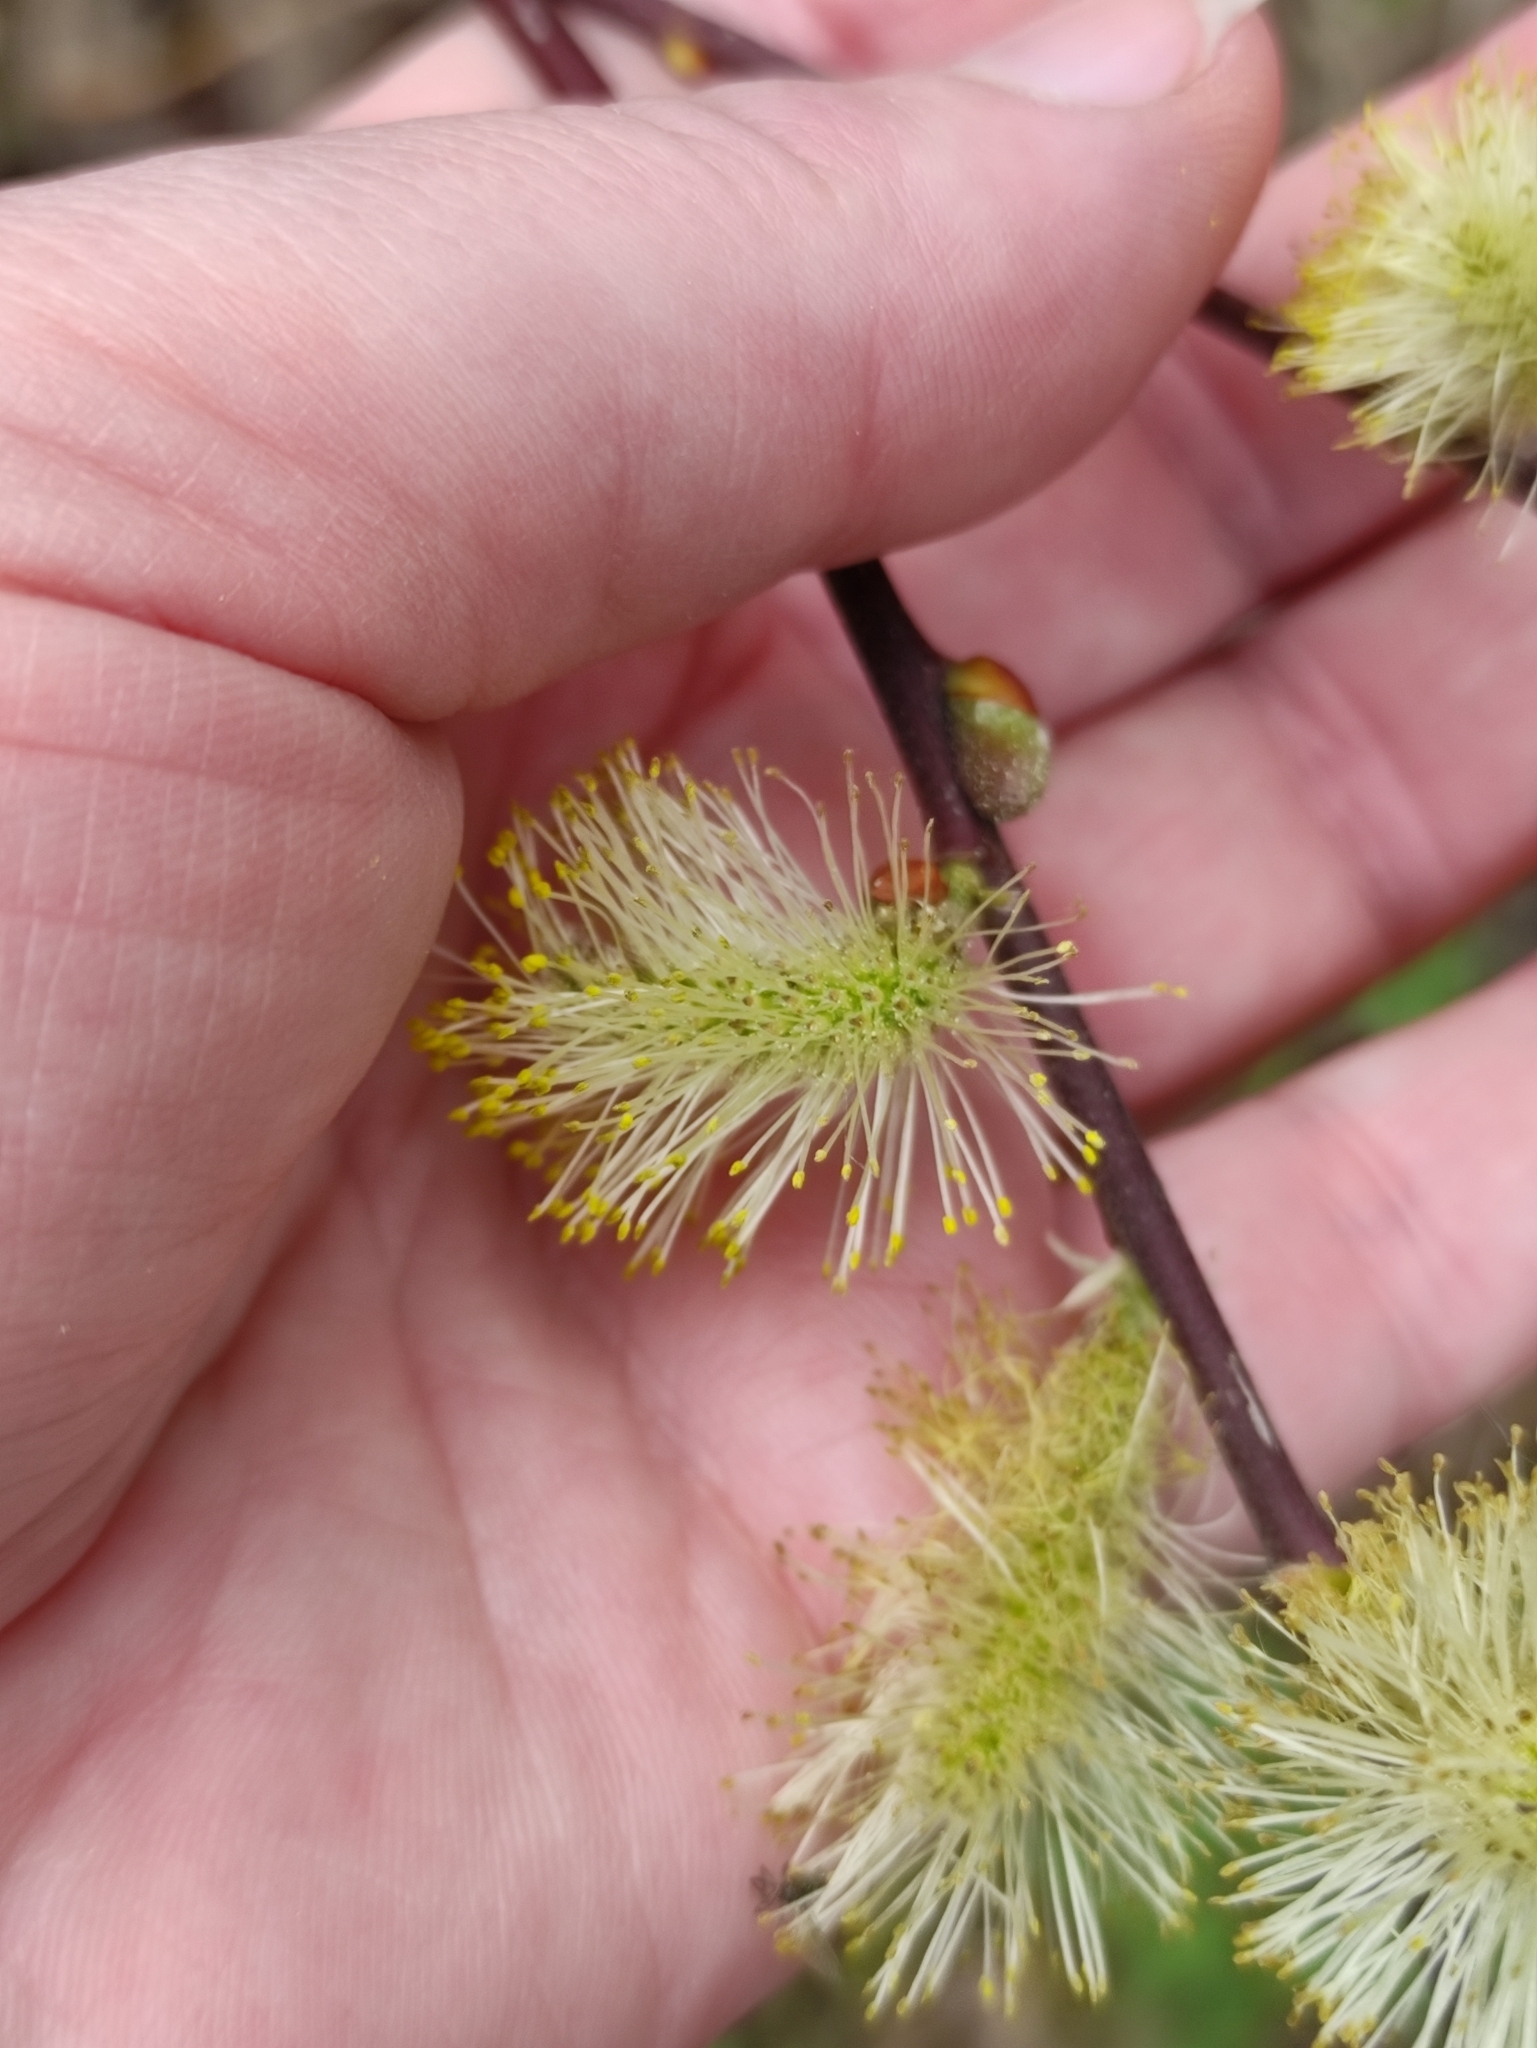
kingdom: Plantae
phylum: Tracheophyta
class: Magnoliopsida
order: Malpighiales
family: Salicaceae
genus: Salix
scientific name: Salix caprea
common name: Goat willow
